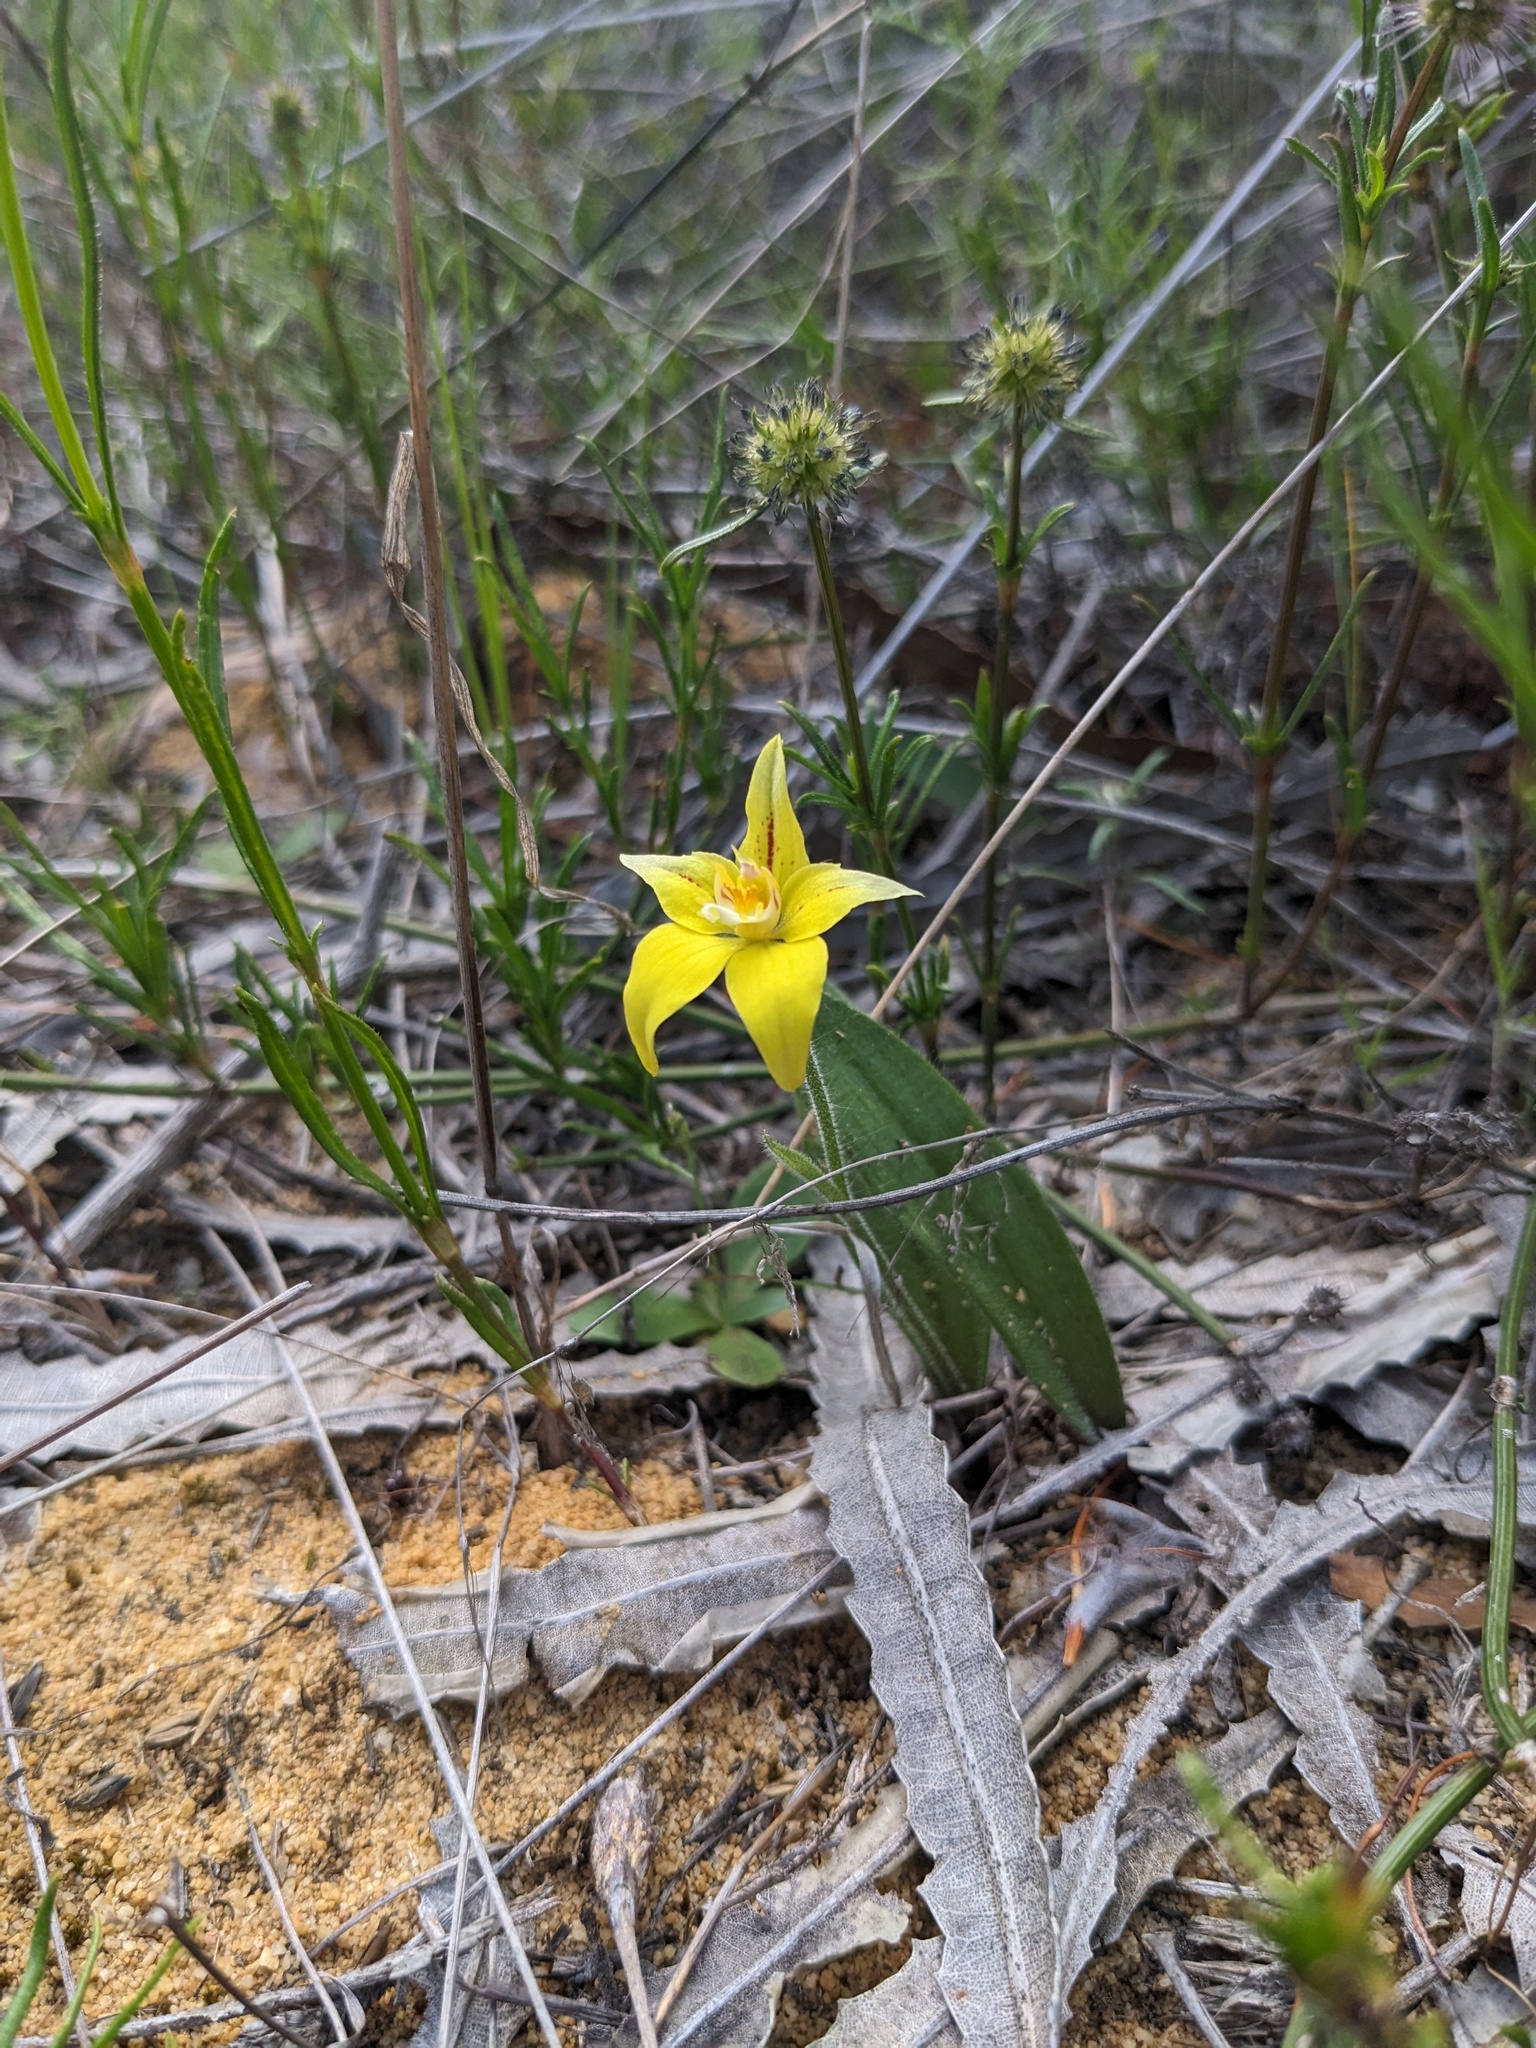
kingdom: Plantae
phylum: Tracheophyta
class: Liliopsida
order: Asparagales
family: Orchidaceae
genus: Caladenia
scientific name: Caladenia flava
